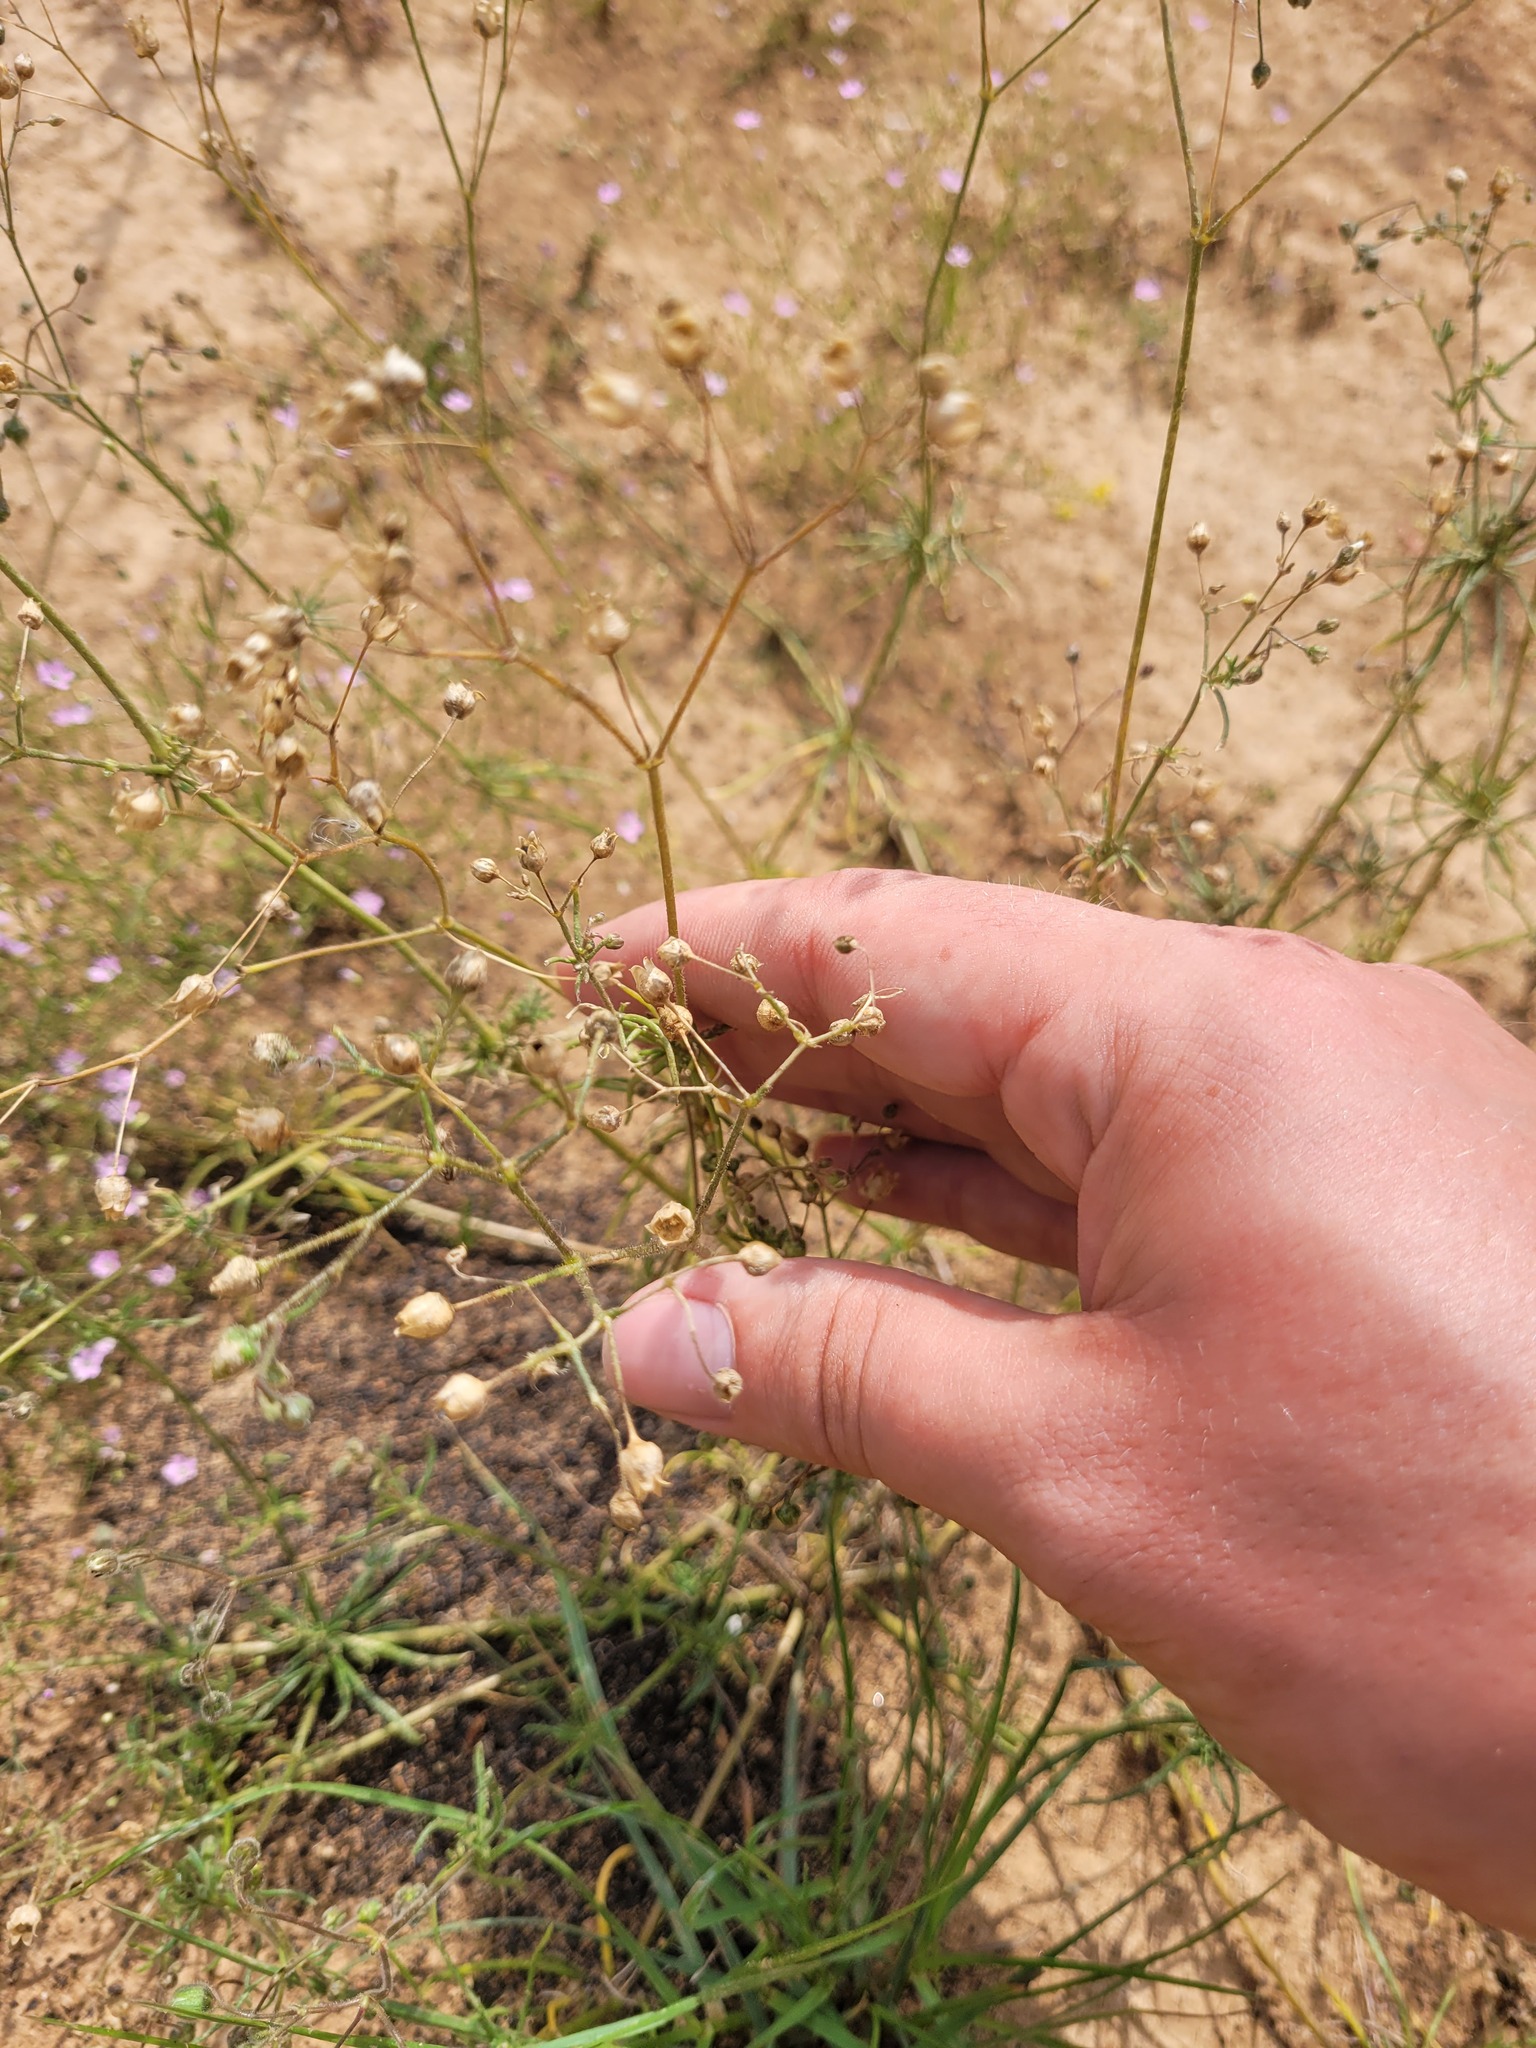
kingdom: Plantae
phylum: Tracheophyta
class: Magnoliopsida
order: Caryophyllales
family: Caryophyllaceae
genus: Spergula
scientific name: Spergula arvensis
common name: Corn spurrey
